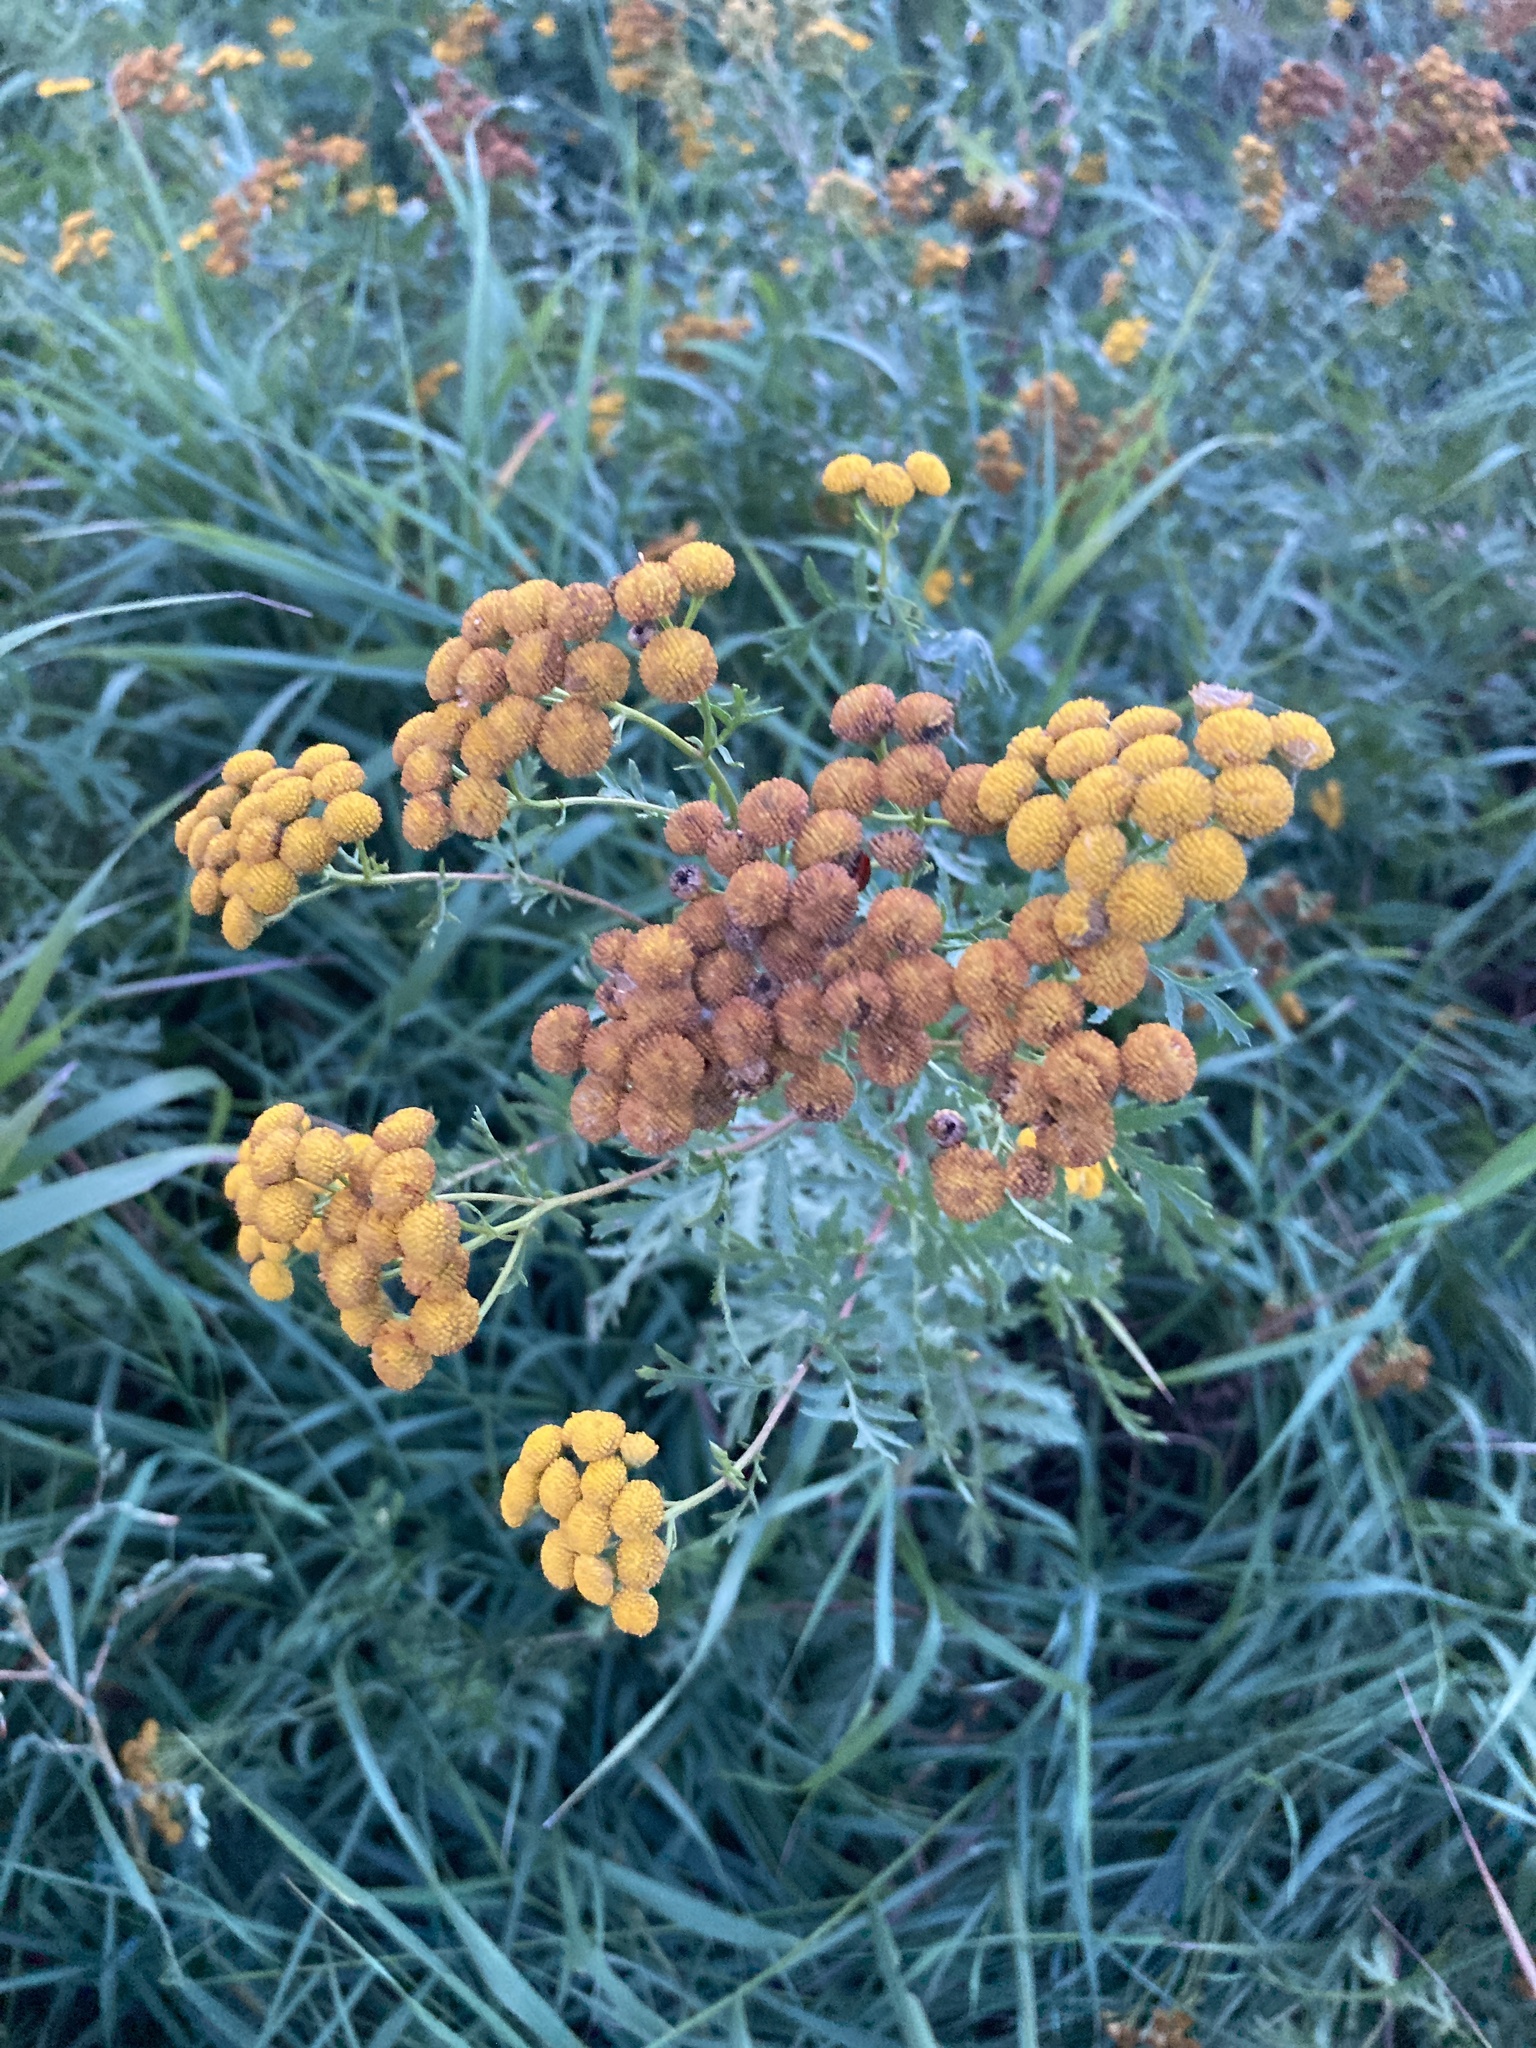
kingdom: Plantae
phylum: Tracheophyta
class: Magnoliopsida
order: Asterales
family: Asteraceae
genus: Tanacetum
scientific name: Tanacetum vulgare
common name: Common tansy
